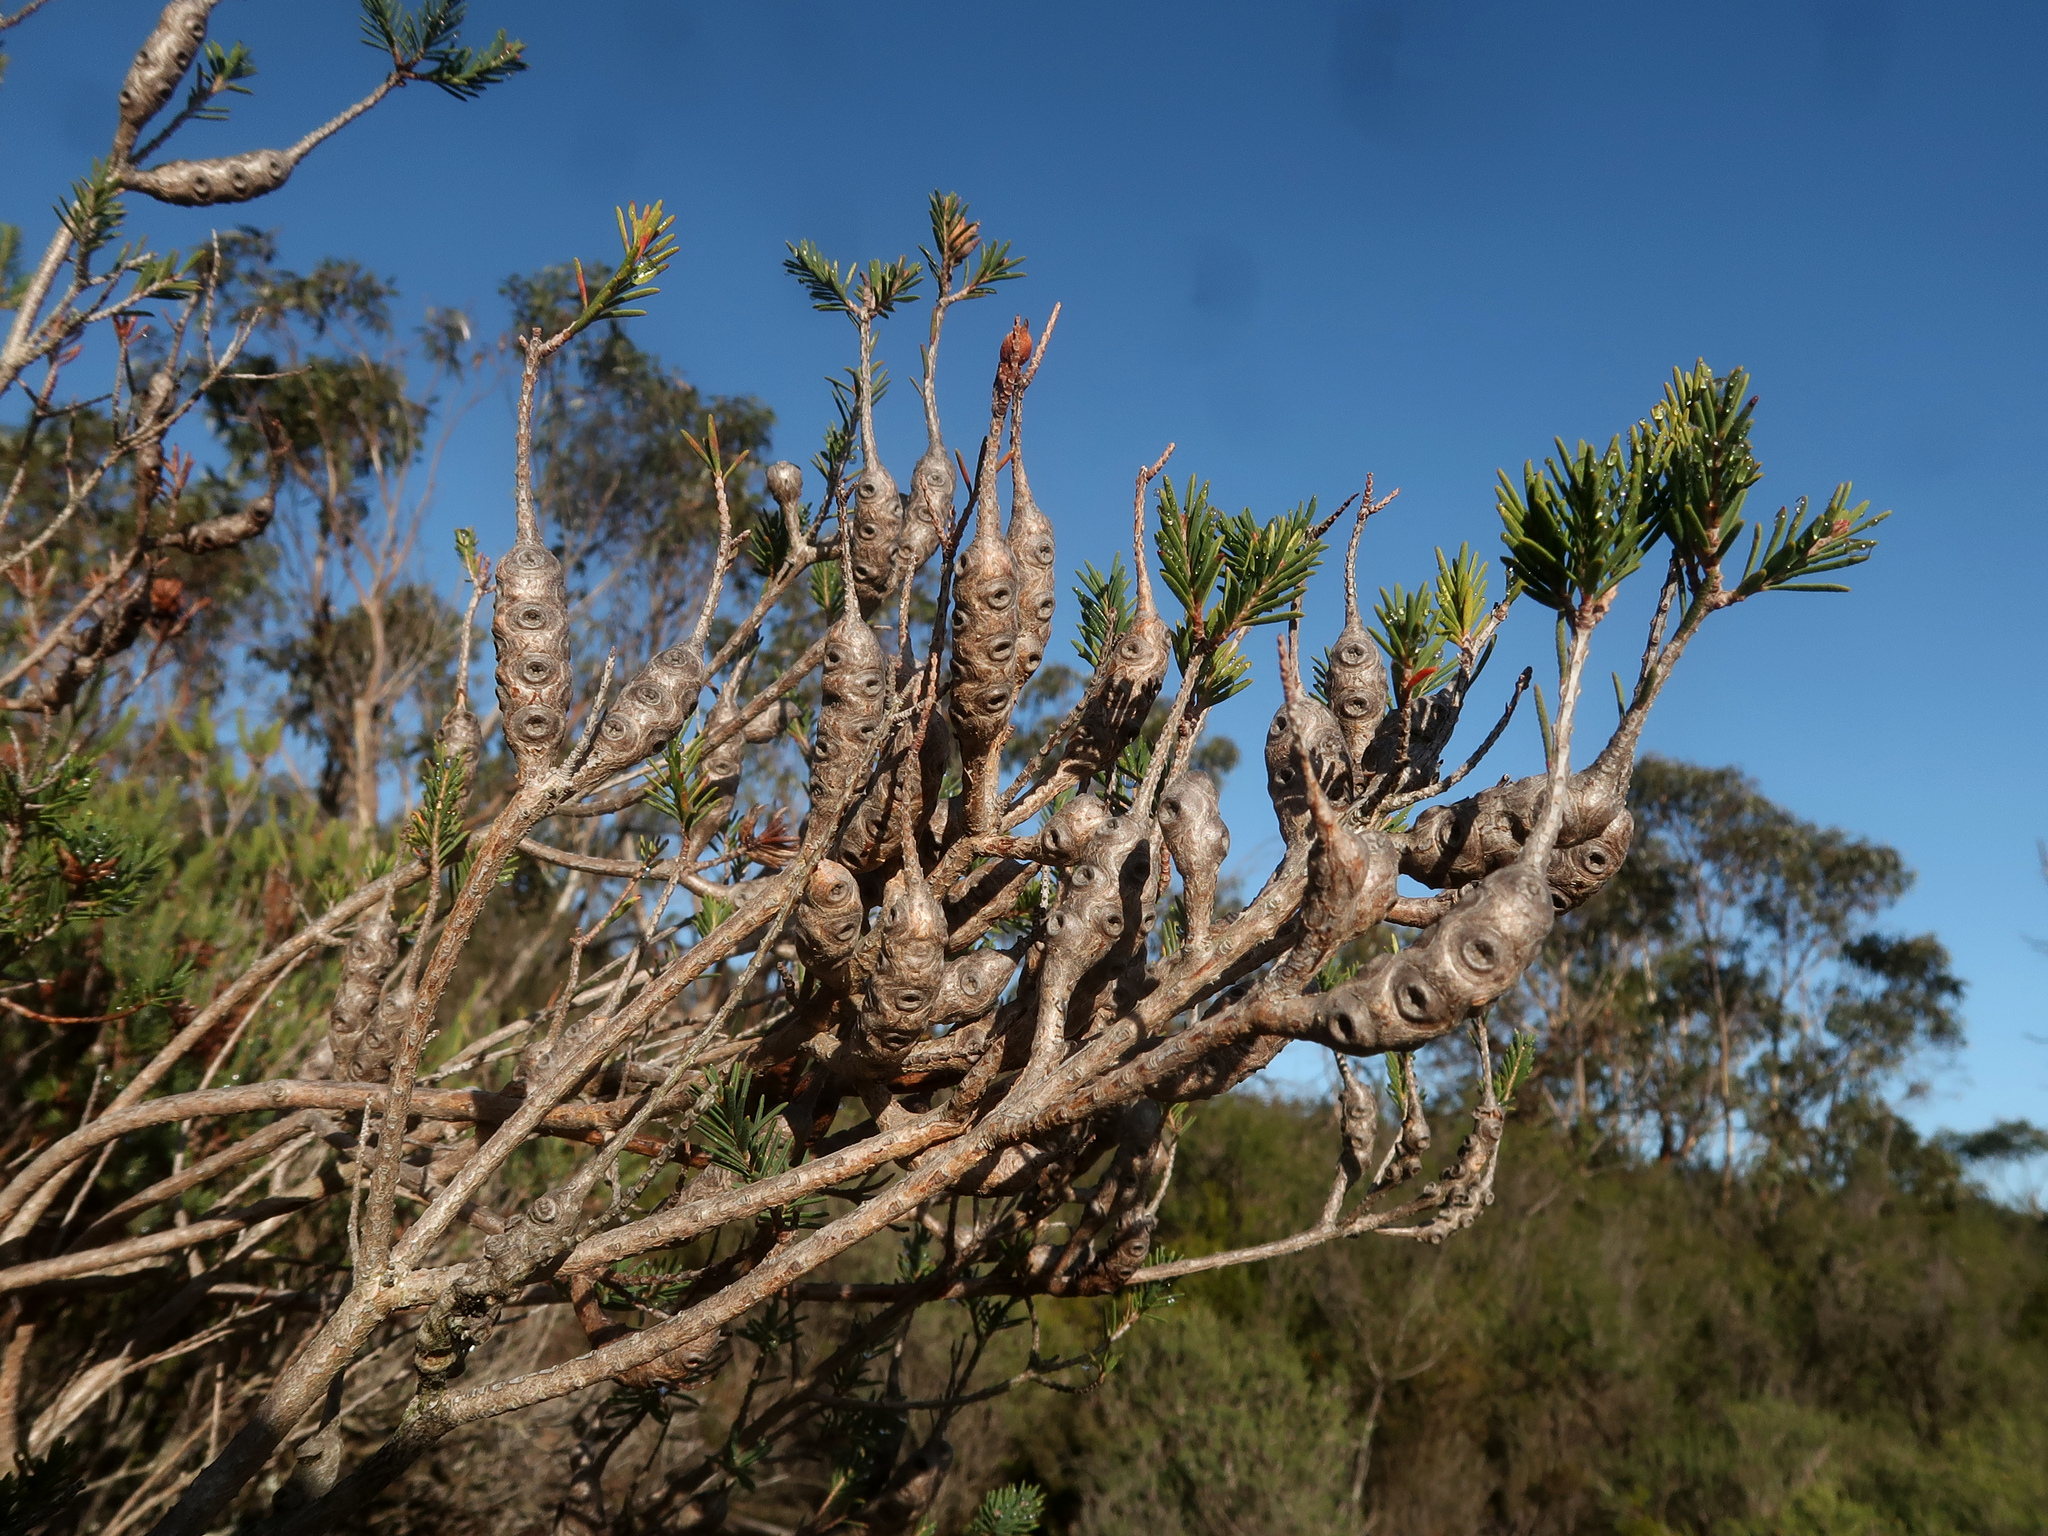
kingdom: Plantae
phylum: Tracheophyta
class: Magnoliopsida
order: Myrtales
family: Myrtaceae
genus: Melaleuca
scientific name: Melaleuca decussata
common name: Cross-leaf honey myrtle
